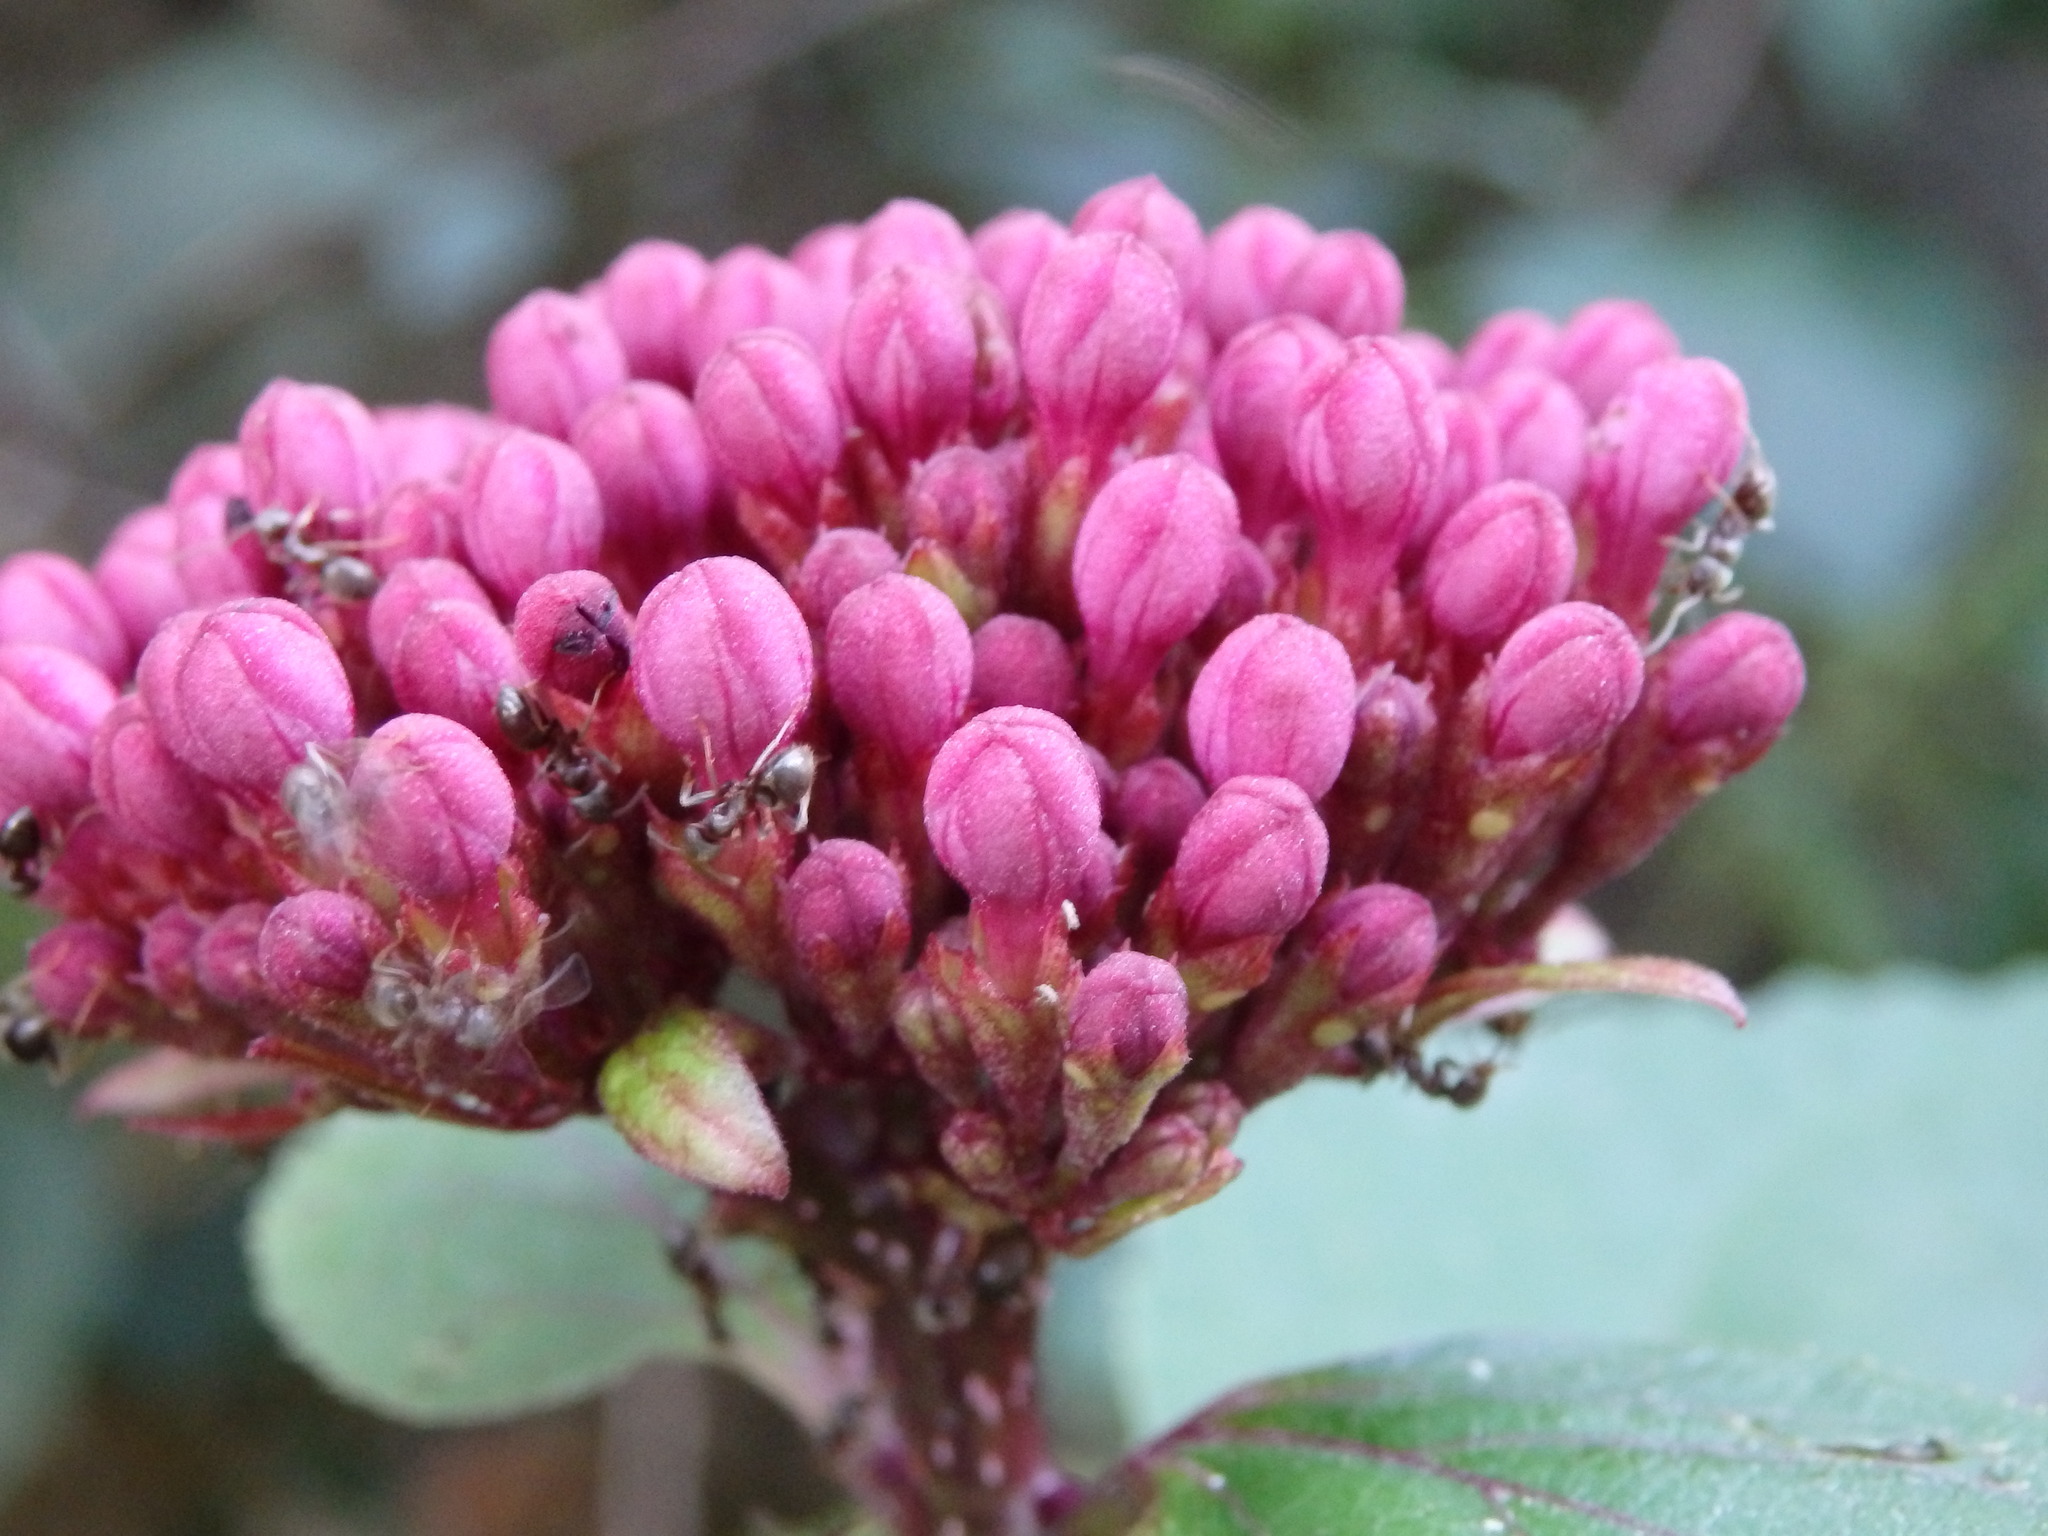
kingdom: Plantae
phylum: Tracheophyta
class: Magnoliopsida
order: Lamiales
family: Lamiaceae
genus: Clerodendrum
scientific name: Clerodendrum bungei
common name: Rose glorybower
